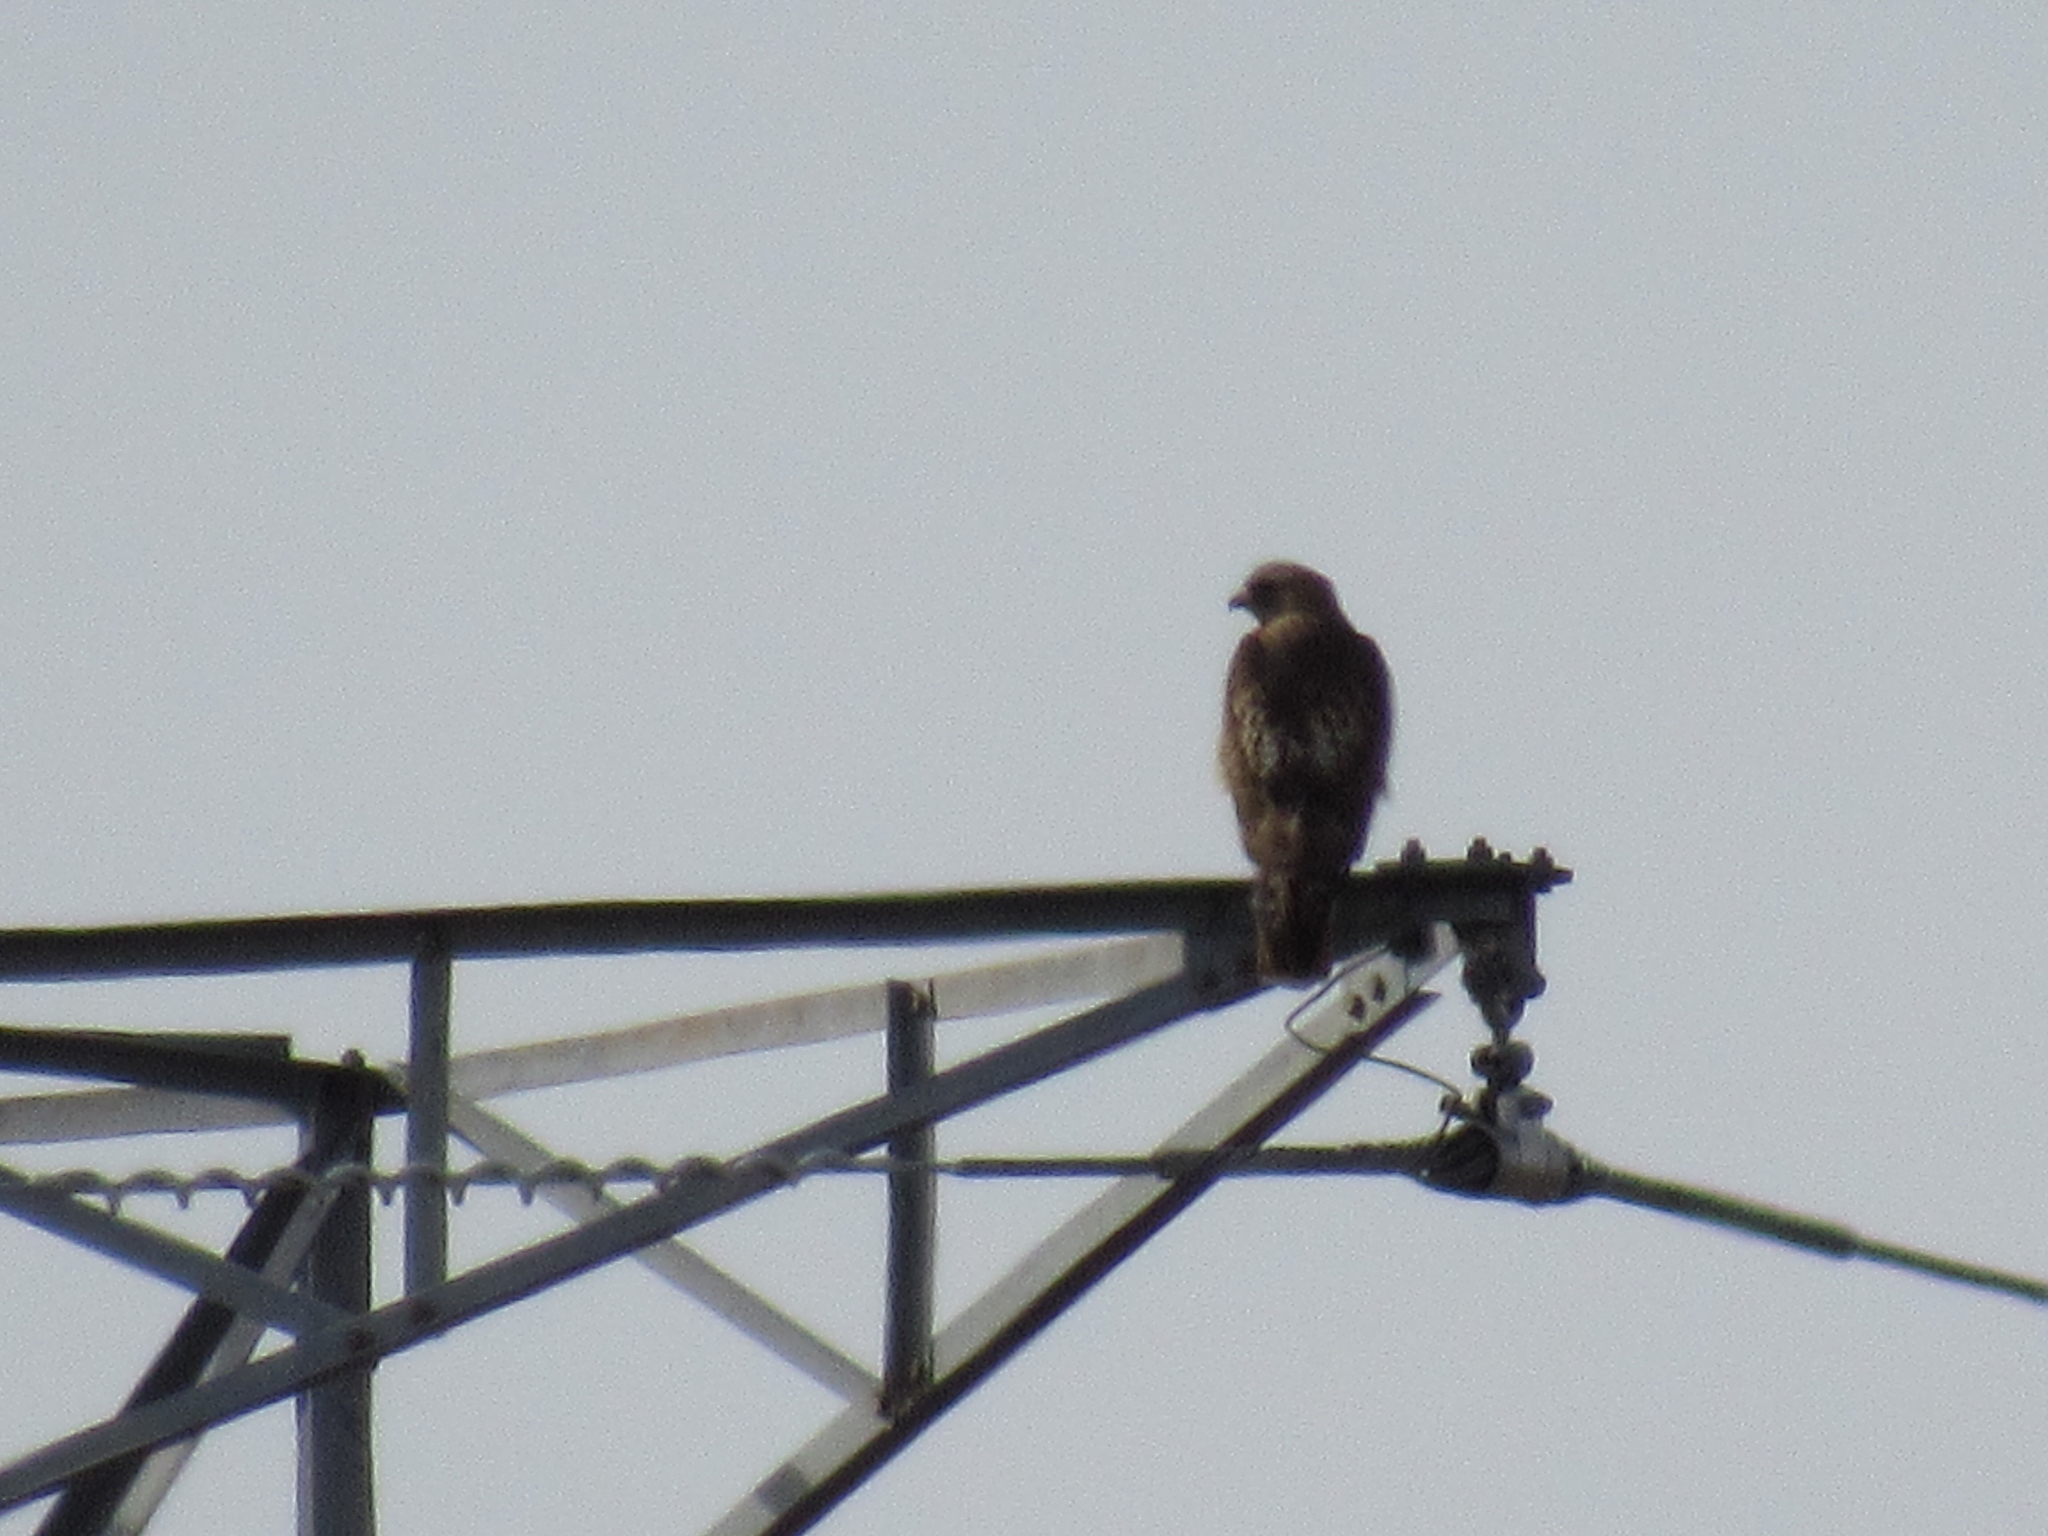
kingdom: Animalia
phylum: Chordata
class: Aves
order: Accipitriformes
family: Accipitridae
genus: Buteo
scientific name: Buteo jamaicensis
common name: Red-tailed hawk
